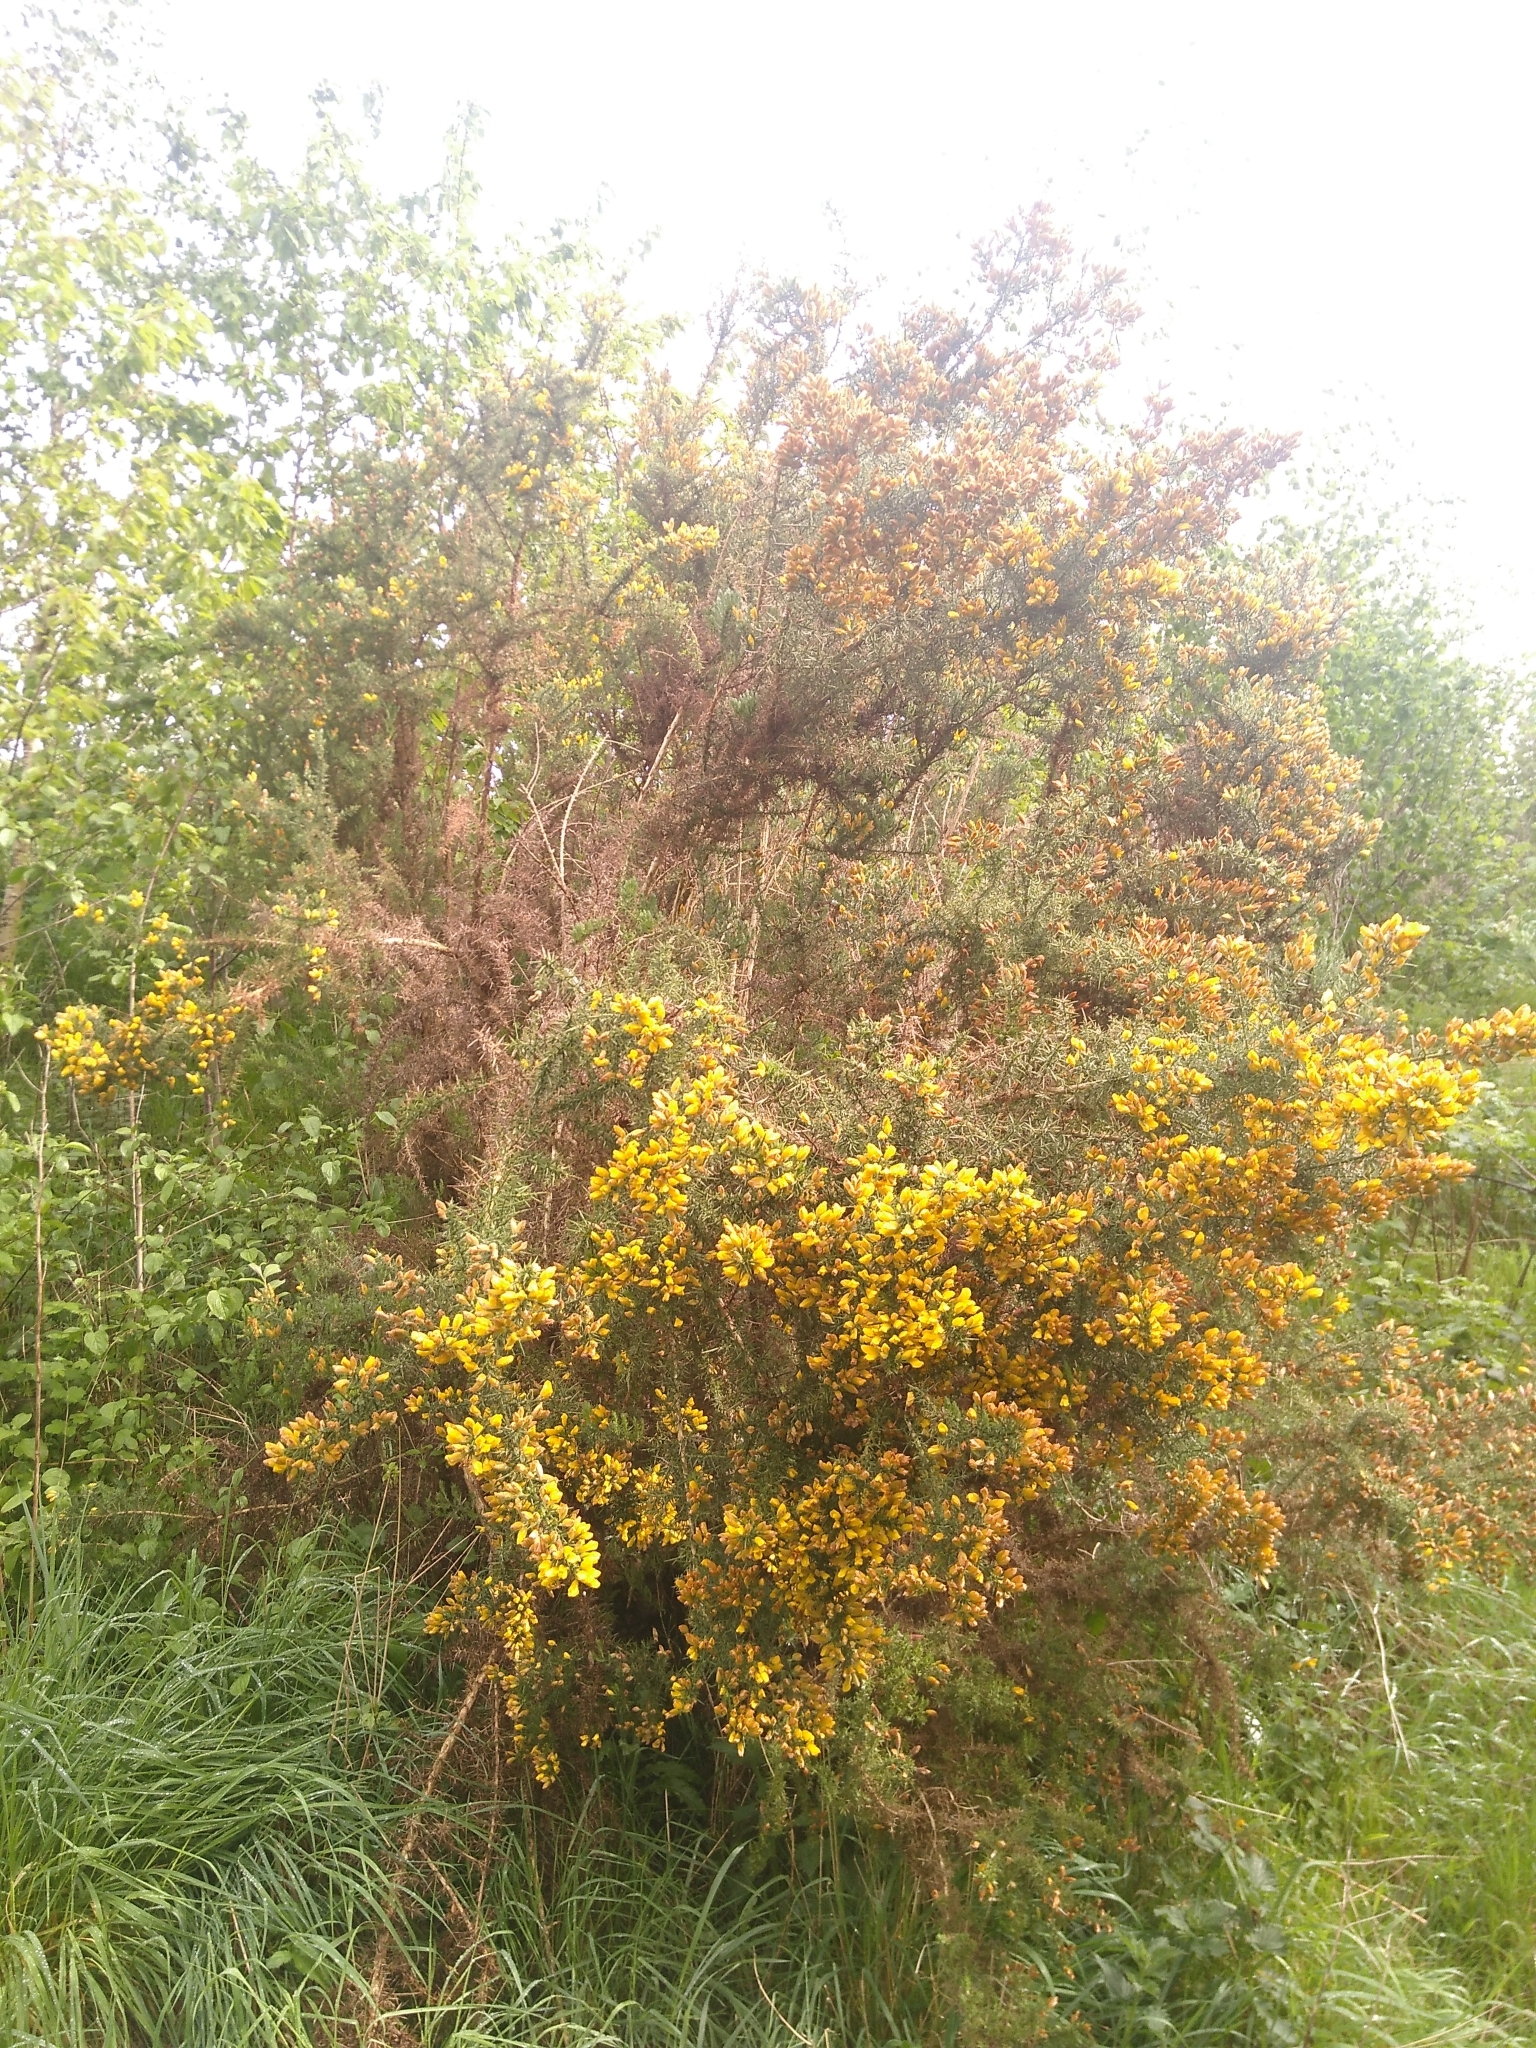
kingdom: Plantae
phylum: Tracheophyta
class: Magnoliopsida
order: Fabales
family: Fabaceae
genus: Ulex
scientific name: Ulex europaeus
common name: Common gorse
